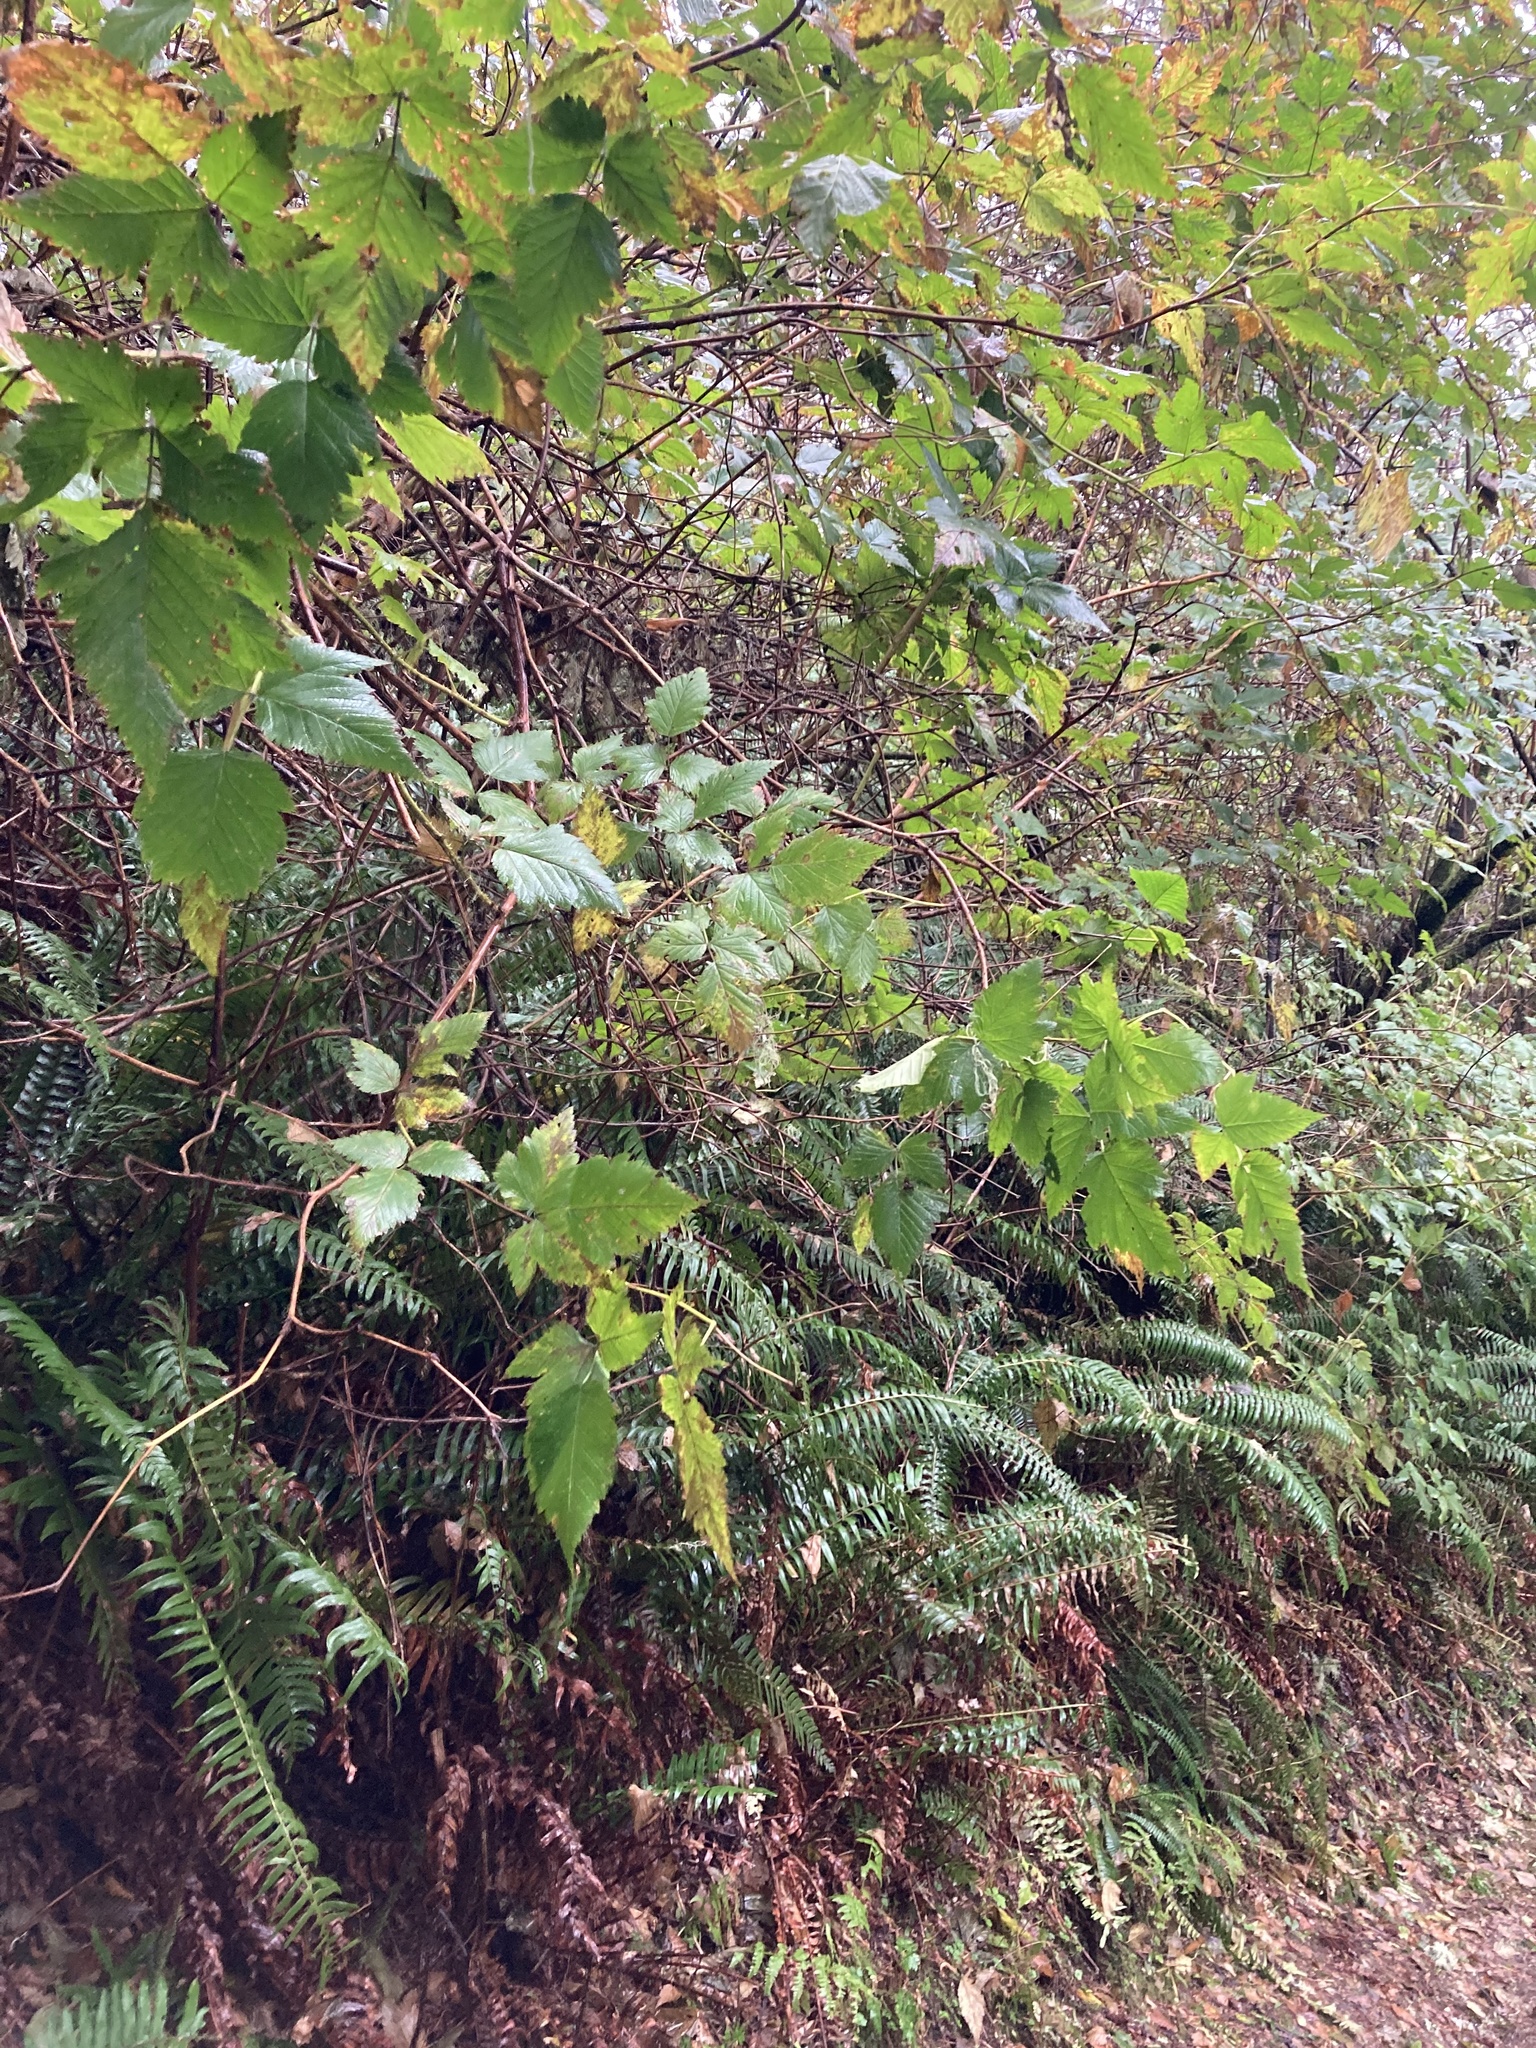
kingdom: Plantae
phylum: Tracheophyta
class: Magnoliopsida
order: Rosales
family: Rosaceae
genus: Rubus
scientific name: Rubus spectabilis
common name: Salmonberry
